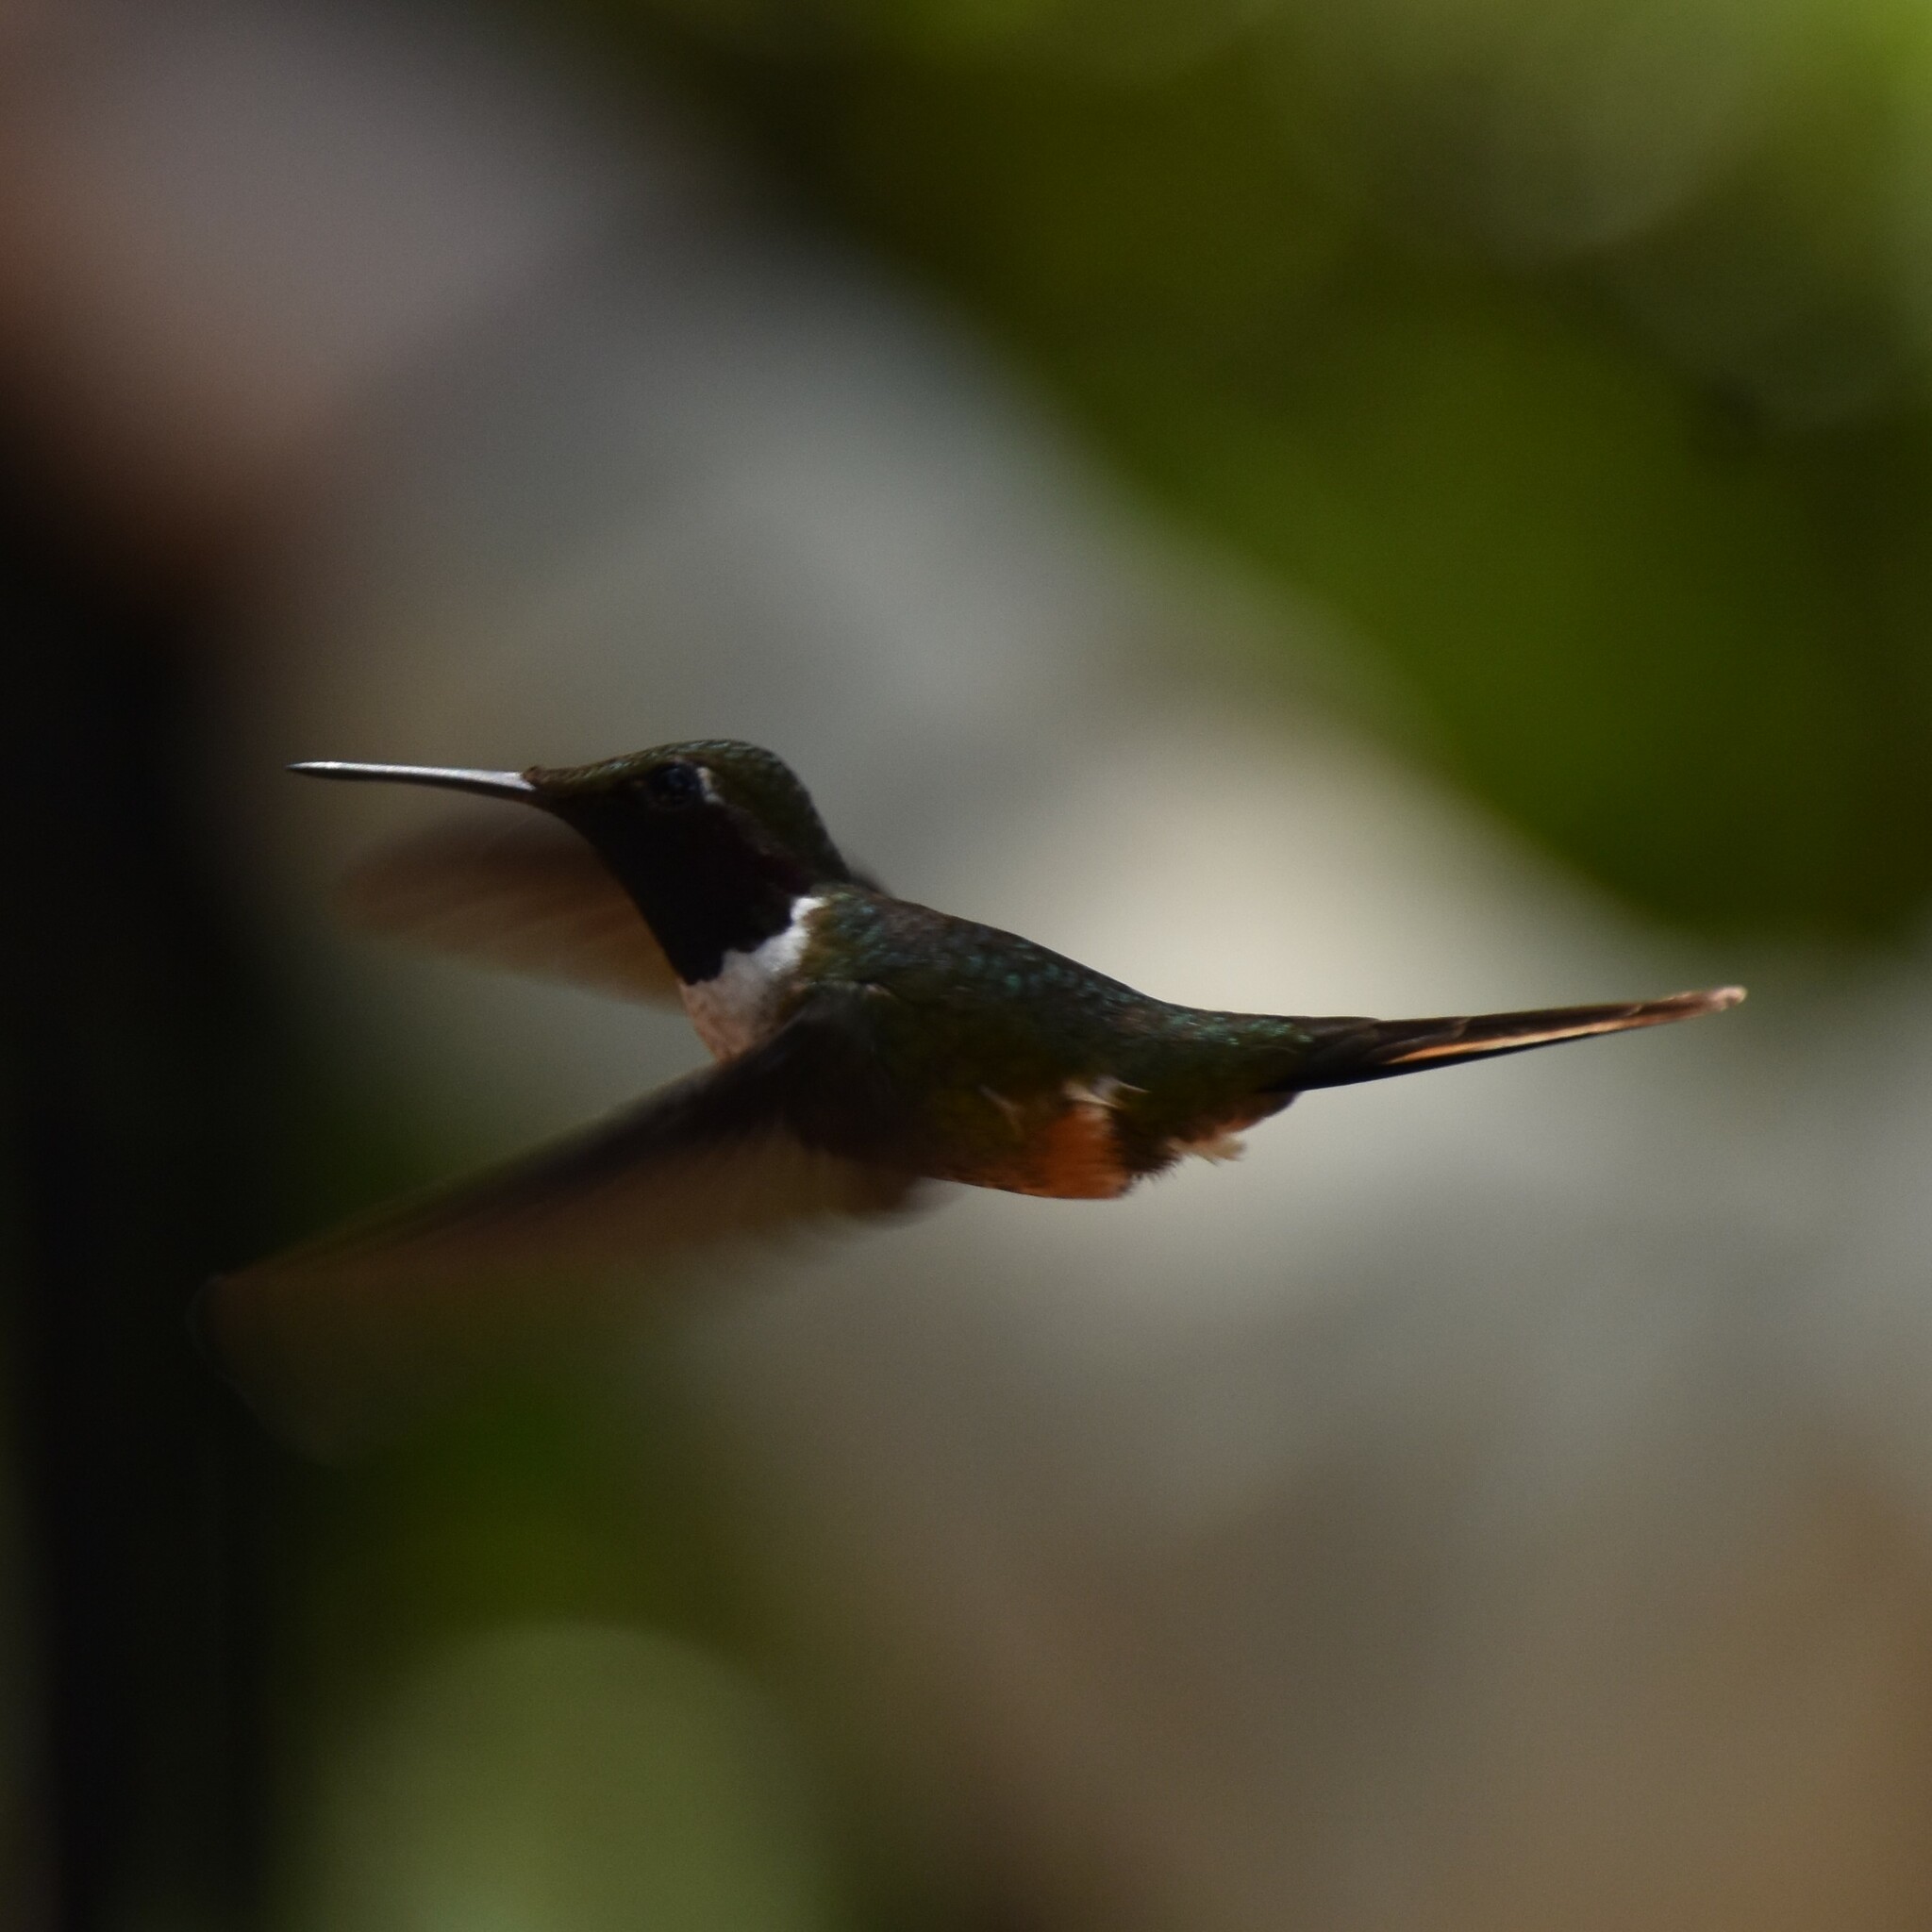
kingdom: Animalia
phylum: Chordata
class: Aves
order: Apodiformes
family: Trochilidae
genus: Calliphlox
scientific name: Calliphlox bryantae
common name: Magenta-throated woodstar
